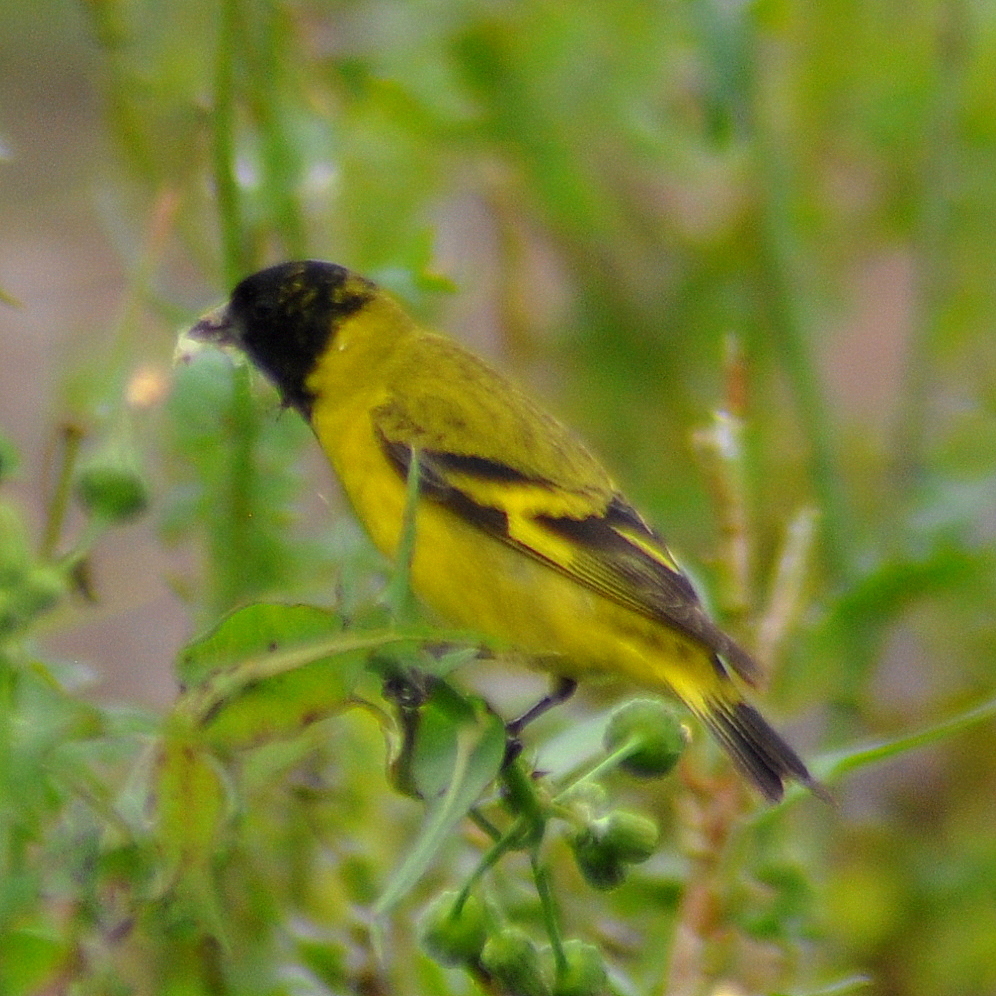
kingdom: Animalia
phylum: Chordata
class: Aves
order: Passeriformes
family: Fringillidae
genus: Spinus
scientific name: Spinus magellanicus
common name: Hooded siskin
